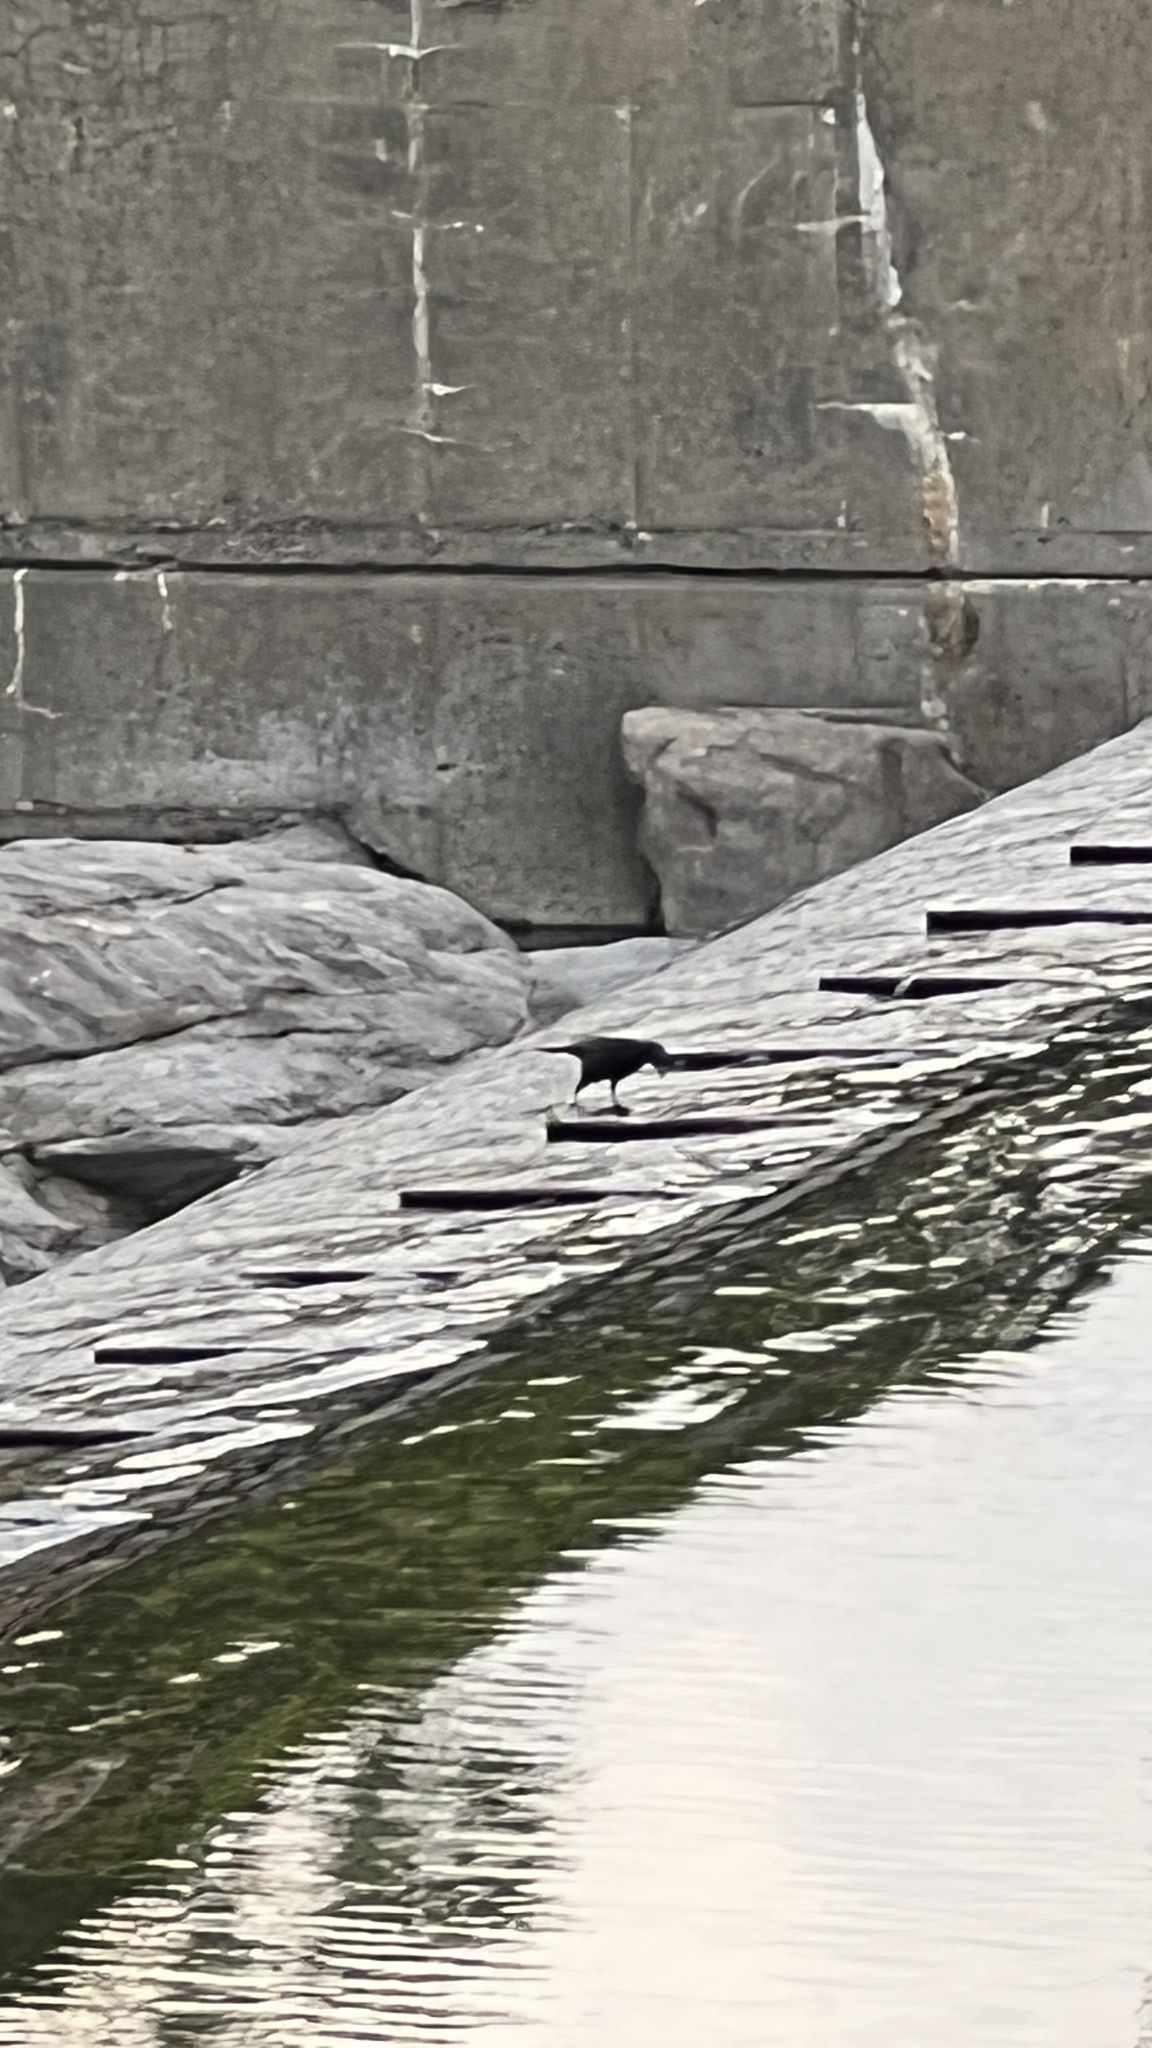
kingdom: Animalia
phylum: Chordata
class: Aves
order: Passeriformes
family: Icteridae
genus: Quiscalus
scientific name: Quiscalus quiscula
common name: Common grackle
